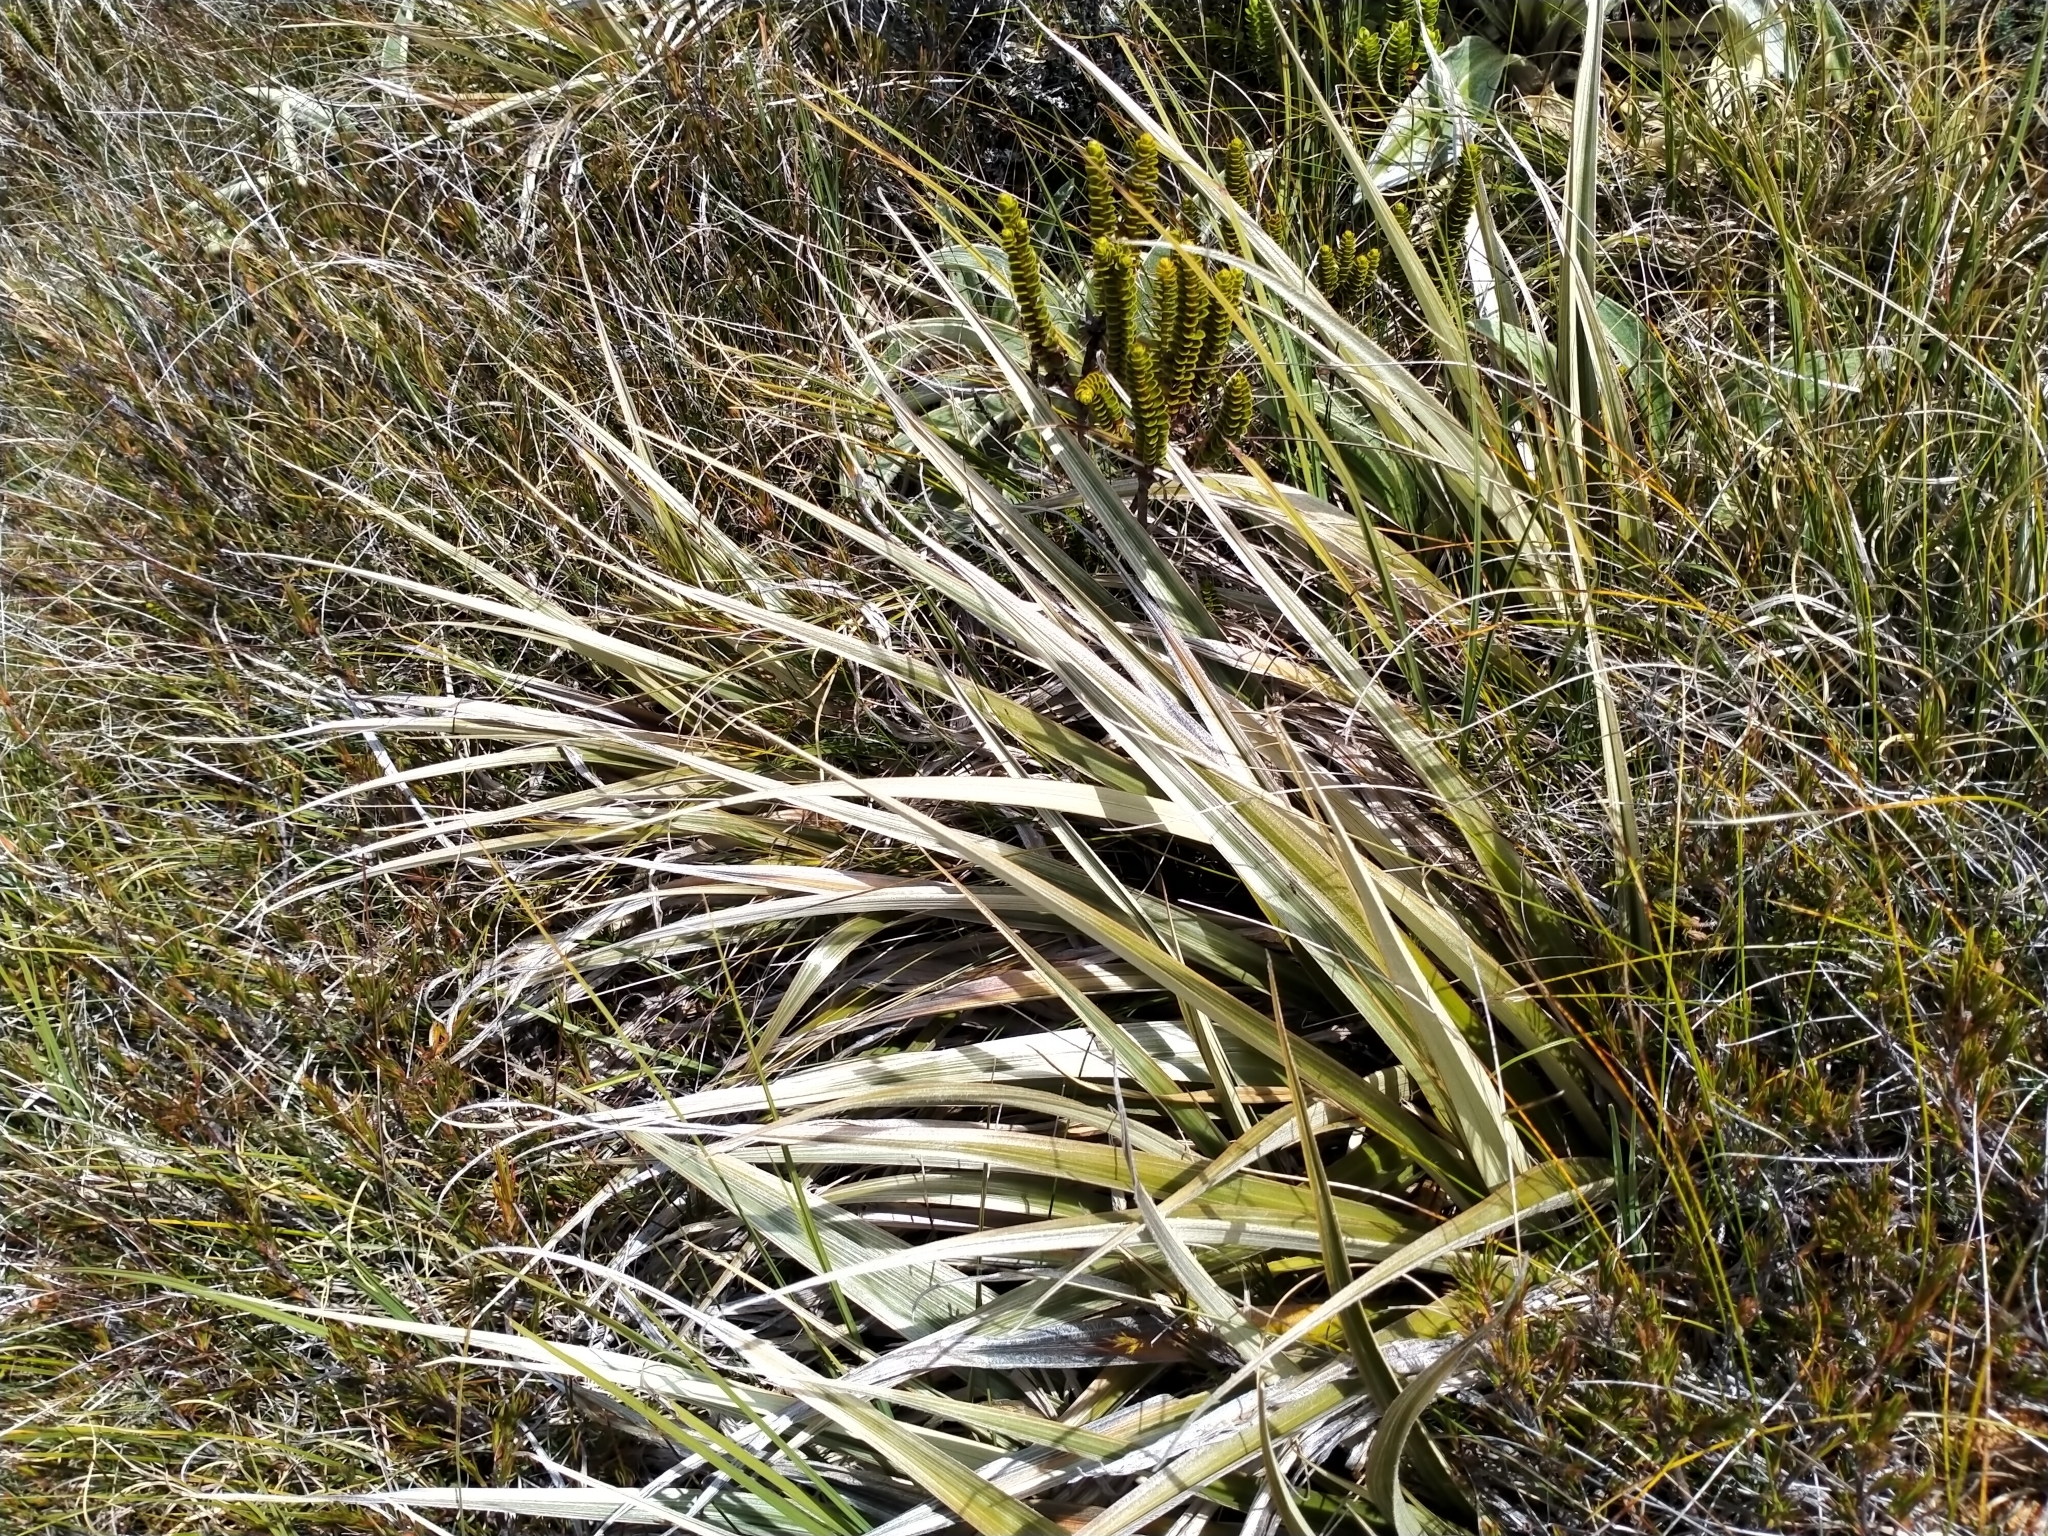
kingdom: Plantae
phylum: Tracheophyta
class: Liliopsida
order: Asparagales
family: Asteliaceae
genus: Astelia
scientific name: Astelia nivicola
